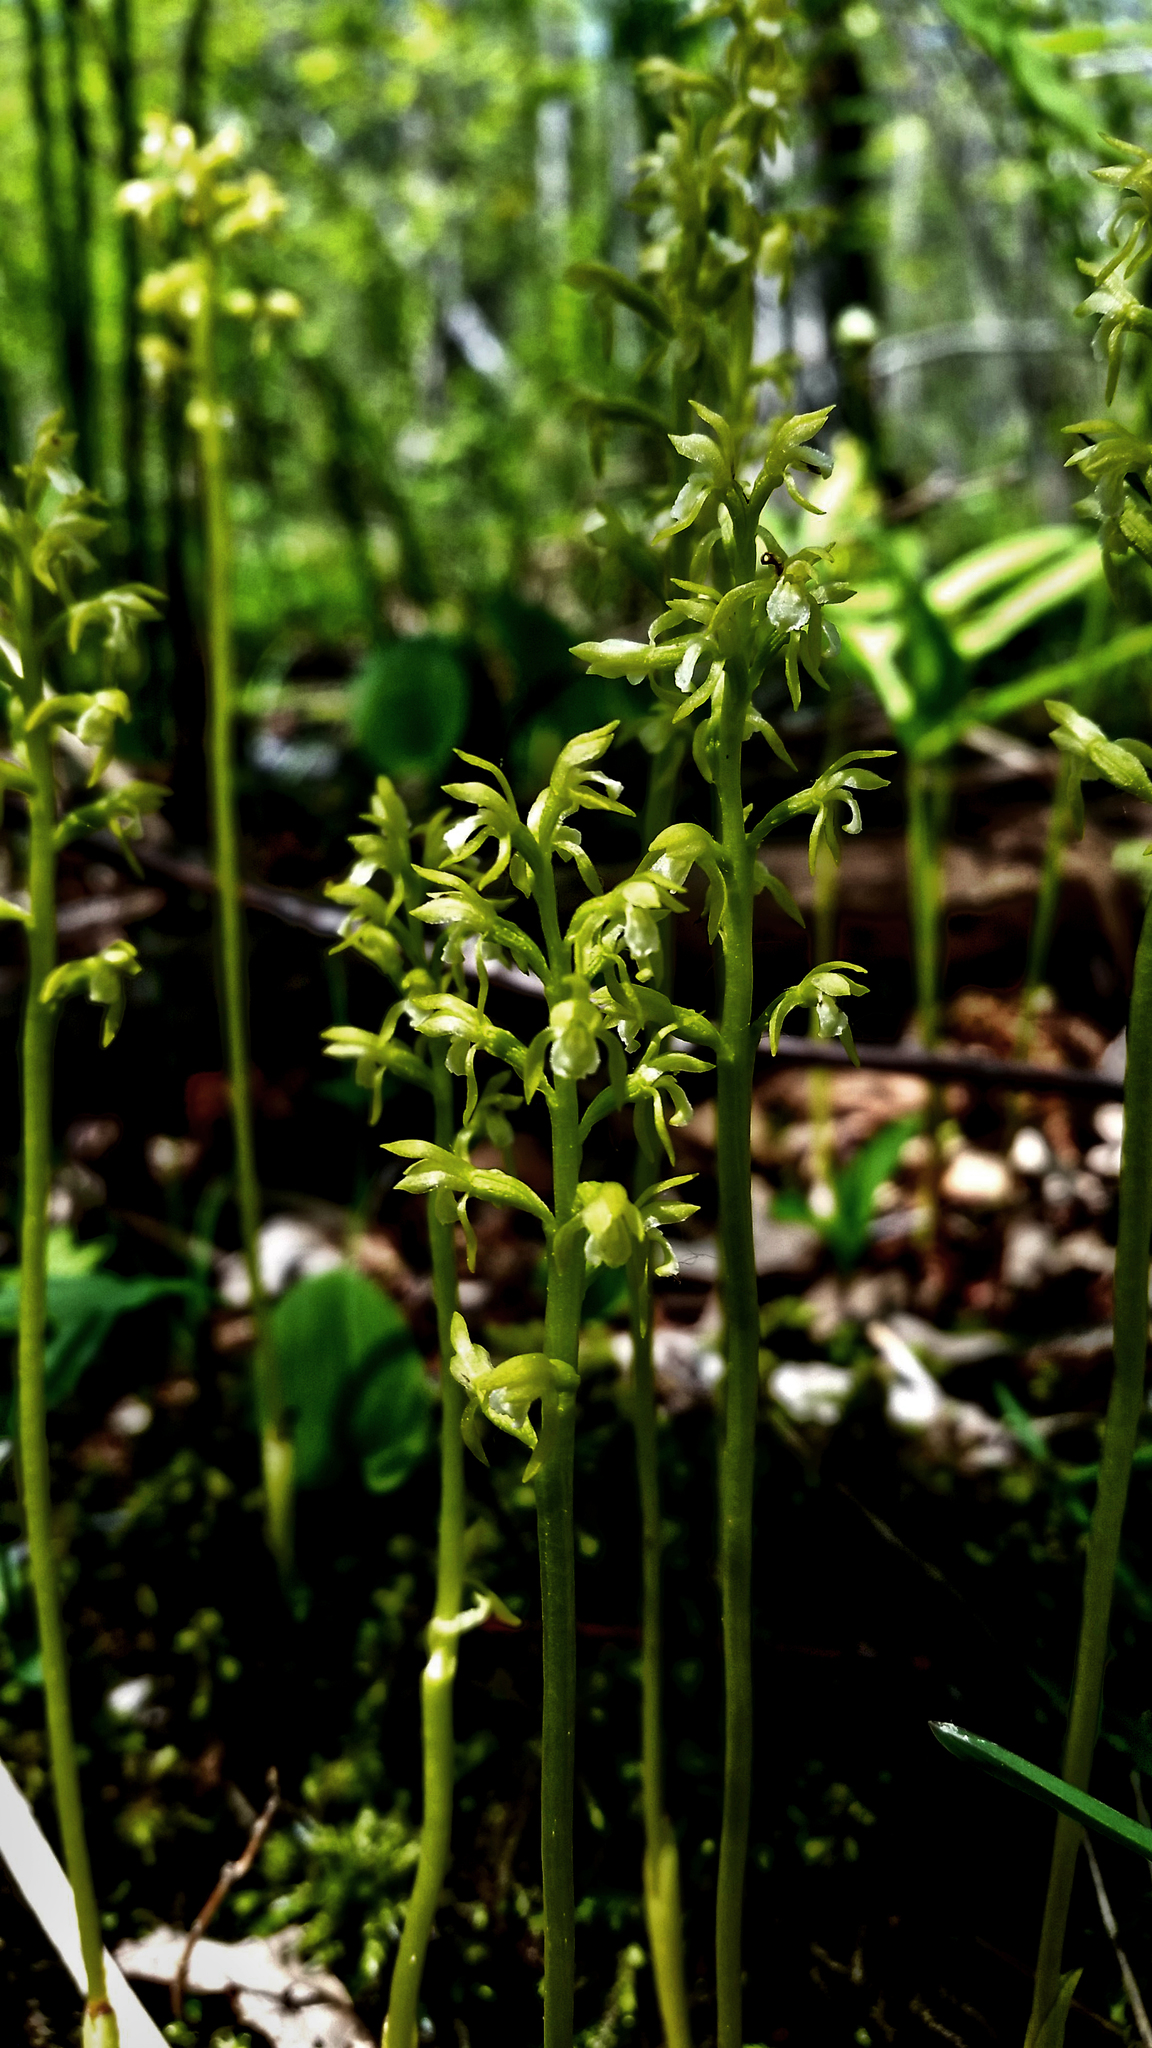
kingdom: Plantae
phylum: Tracheophyta
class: Liliopsida
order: Asparagales
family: Orchidaceae
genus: Corallorhiza
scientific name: Corallorhiza trifida
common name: Yellow coralroot
